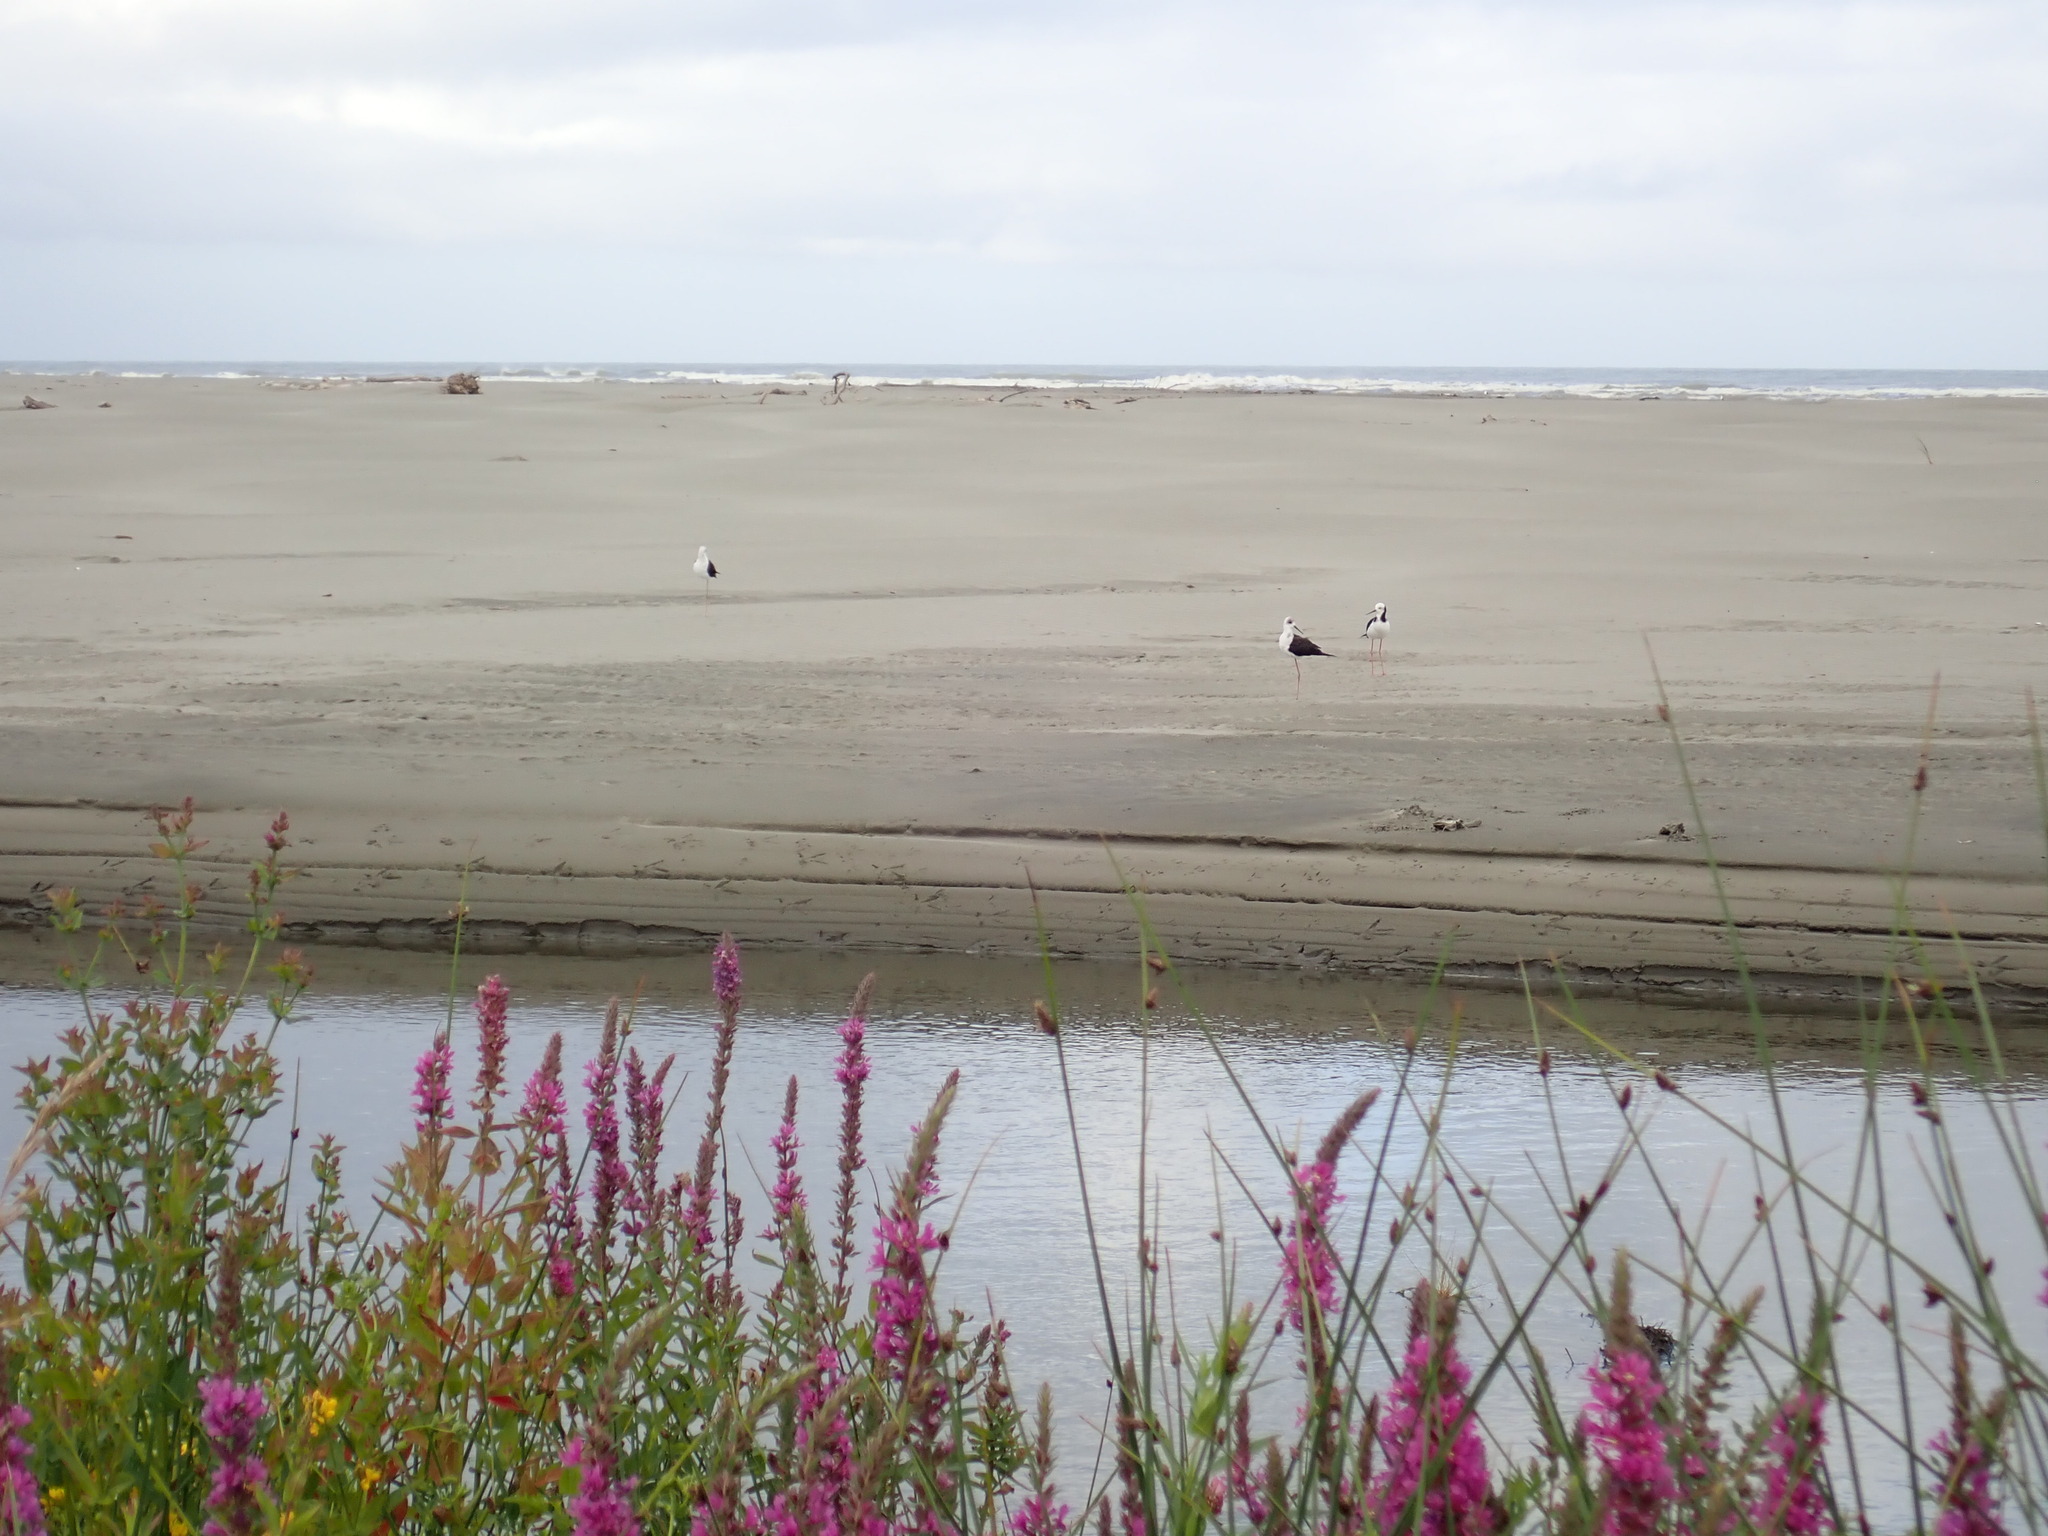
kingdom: Animalia
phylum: Chordata
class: Aves
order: Charadriiformes
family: Recurvirostridae
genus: Himantopus
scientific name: Himantopus leucocephalus
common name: White-headed stilt
